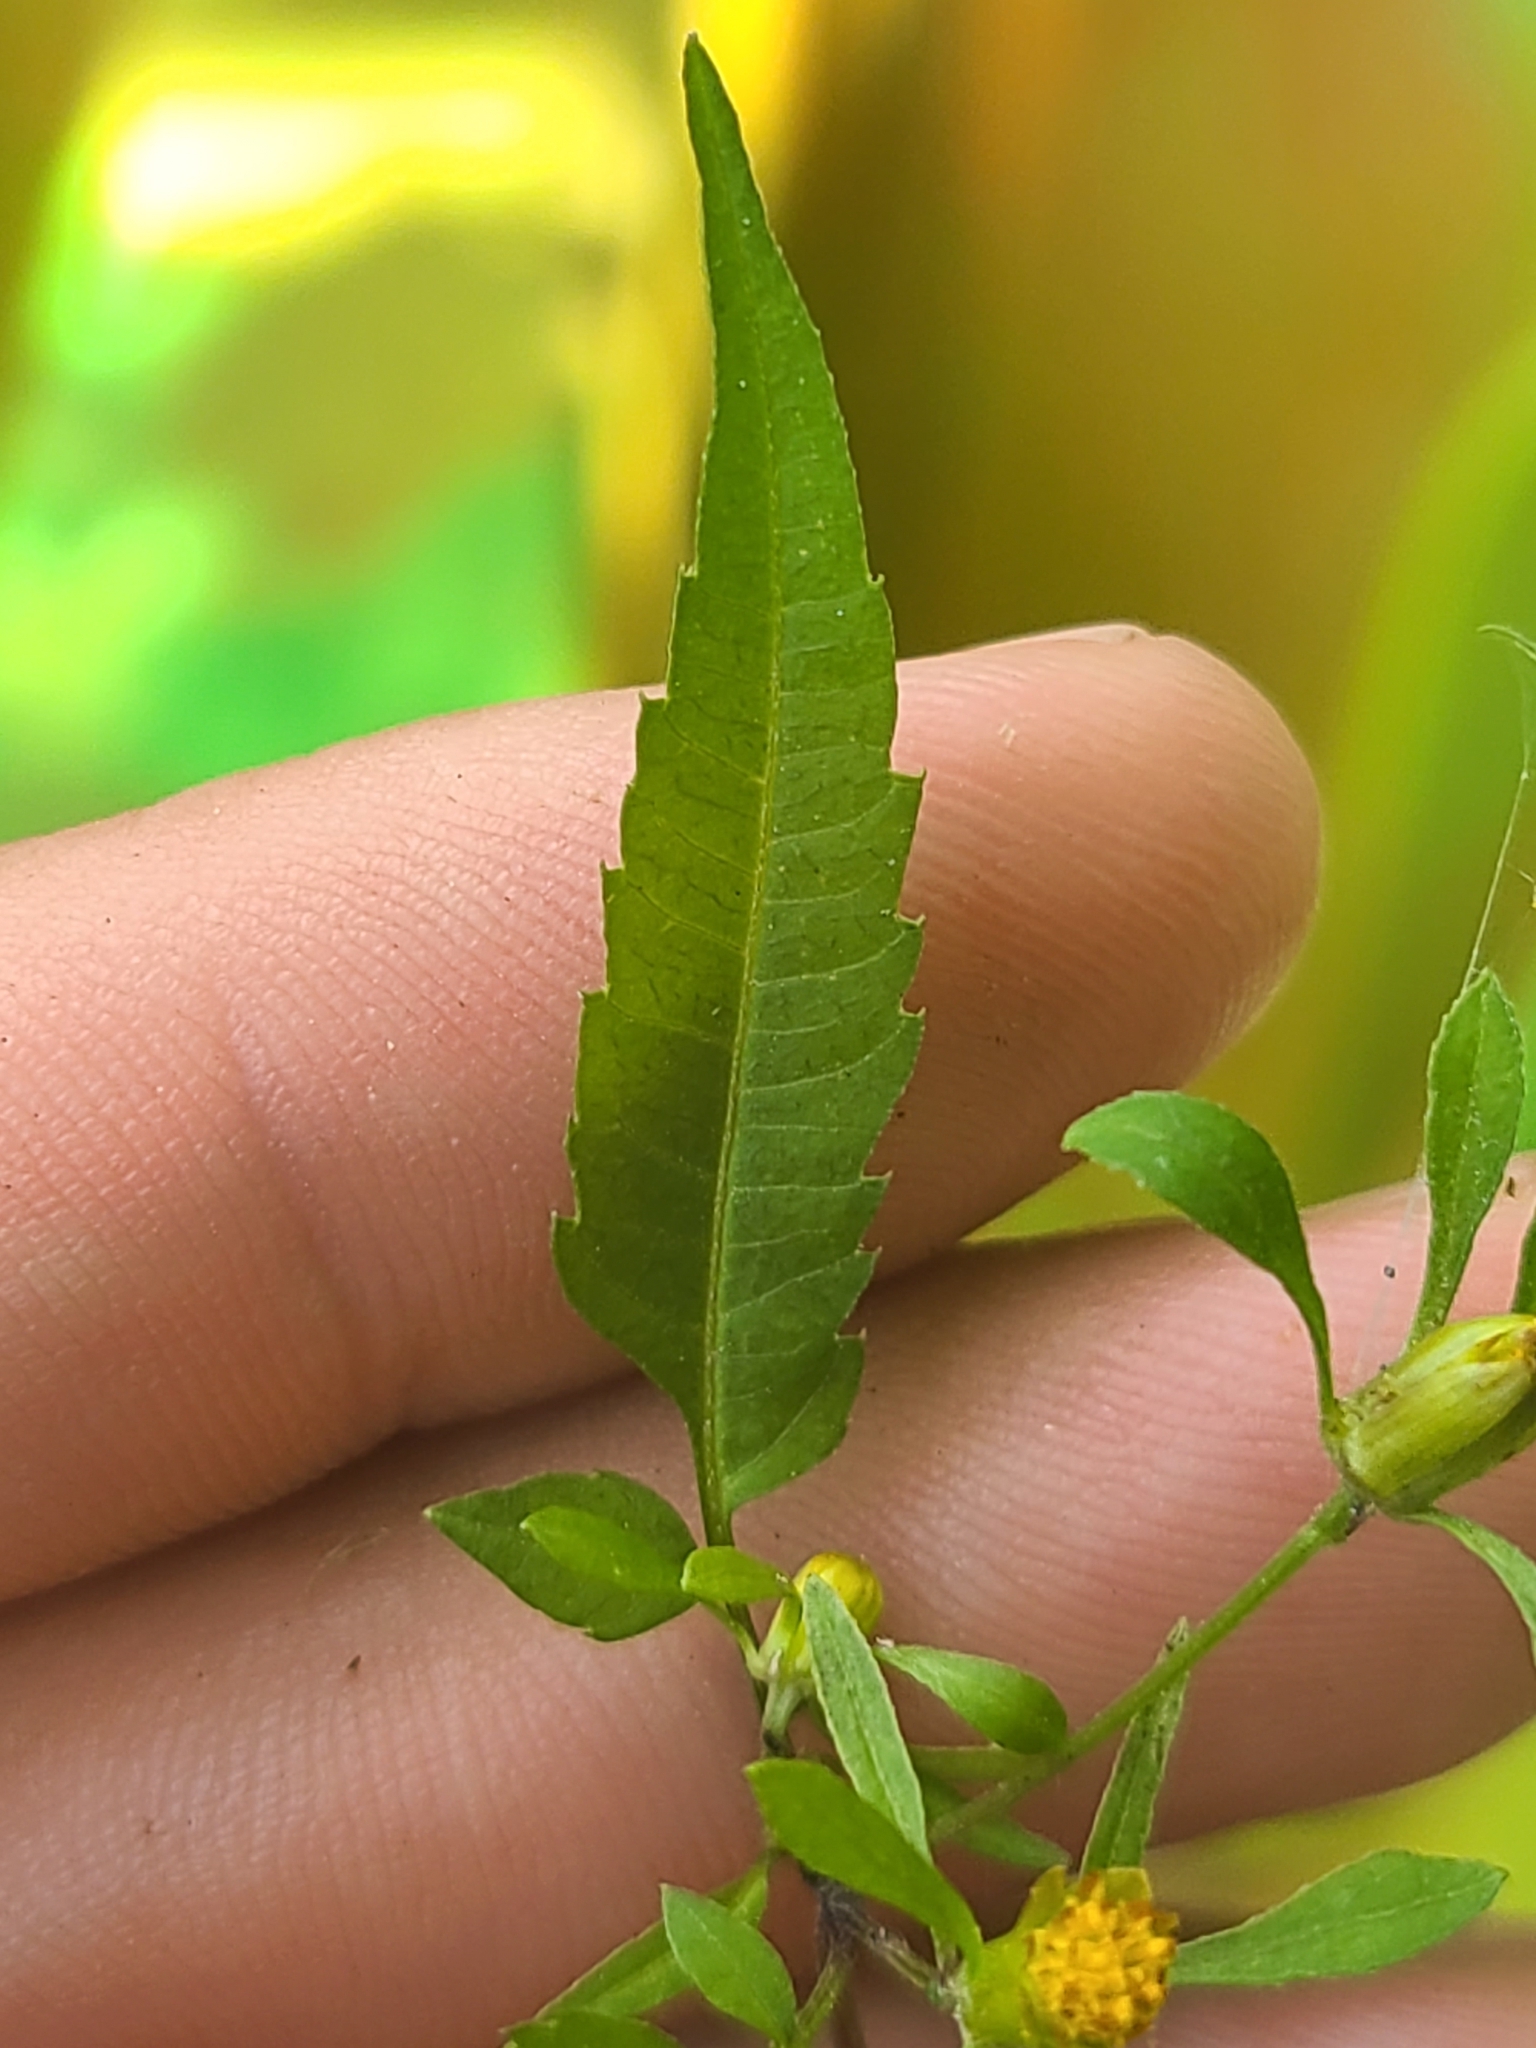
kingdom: Plantae
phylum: Tracheophyta
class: Magnoliopsida
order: Asterales
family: Asteraceae
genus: Bidens
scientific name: Bidens discoidea
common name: Discoide beggarticks
